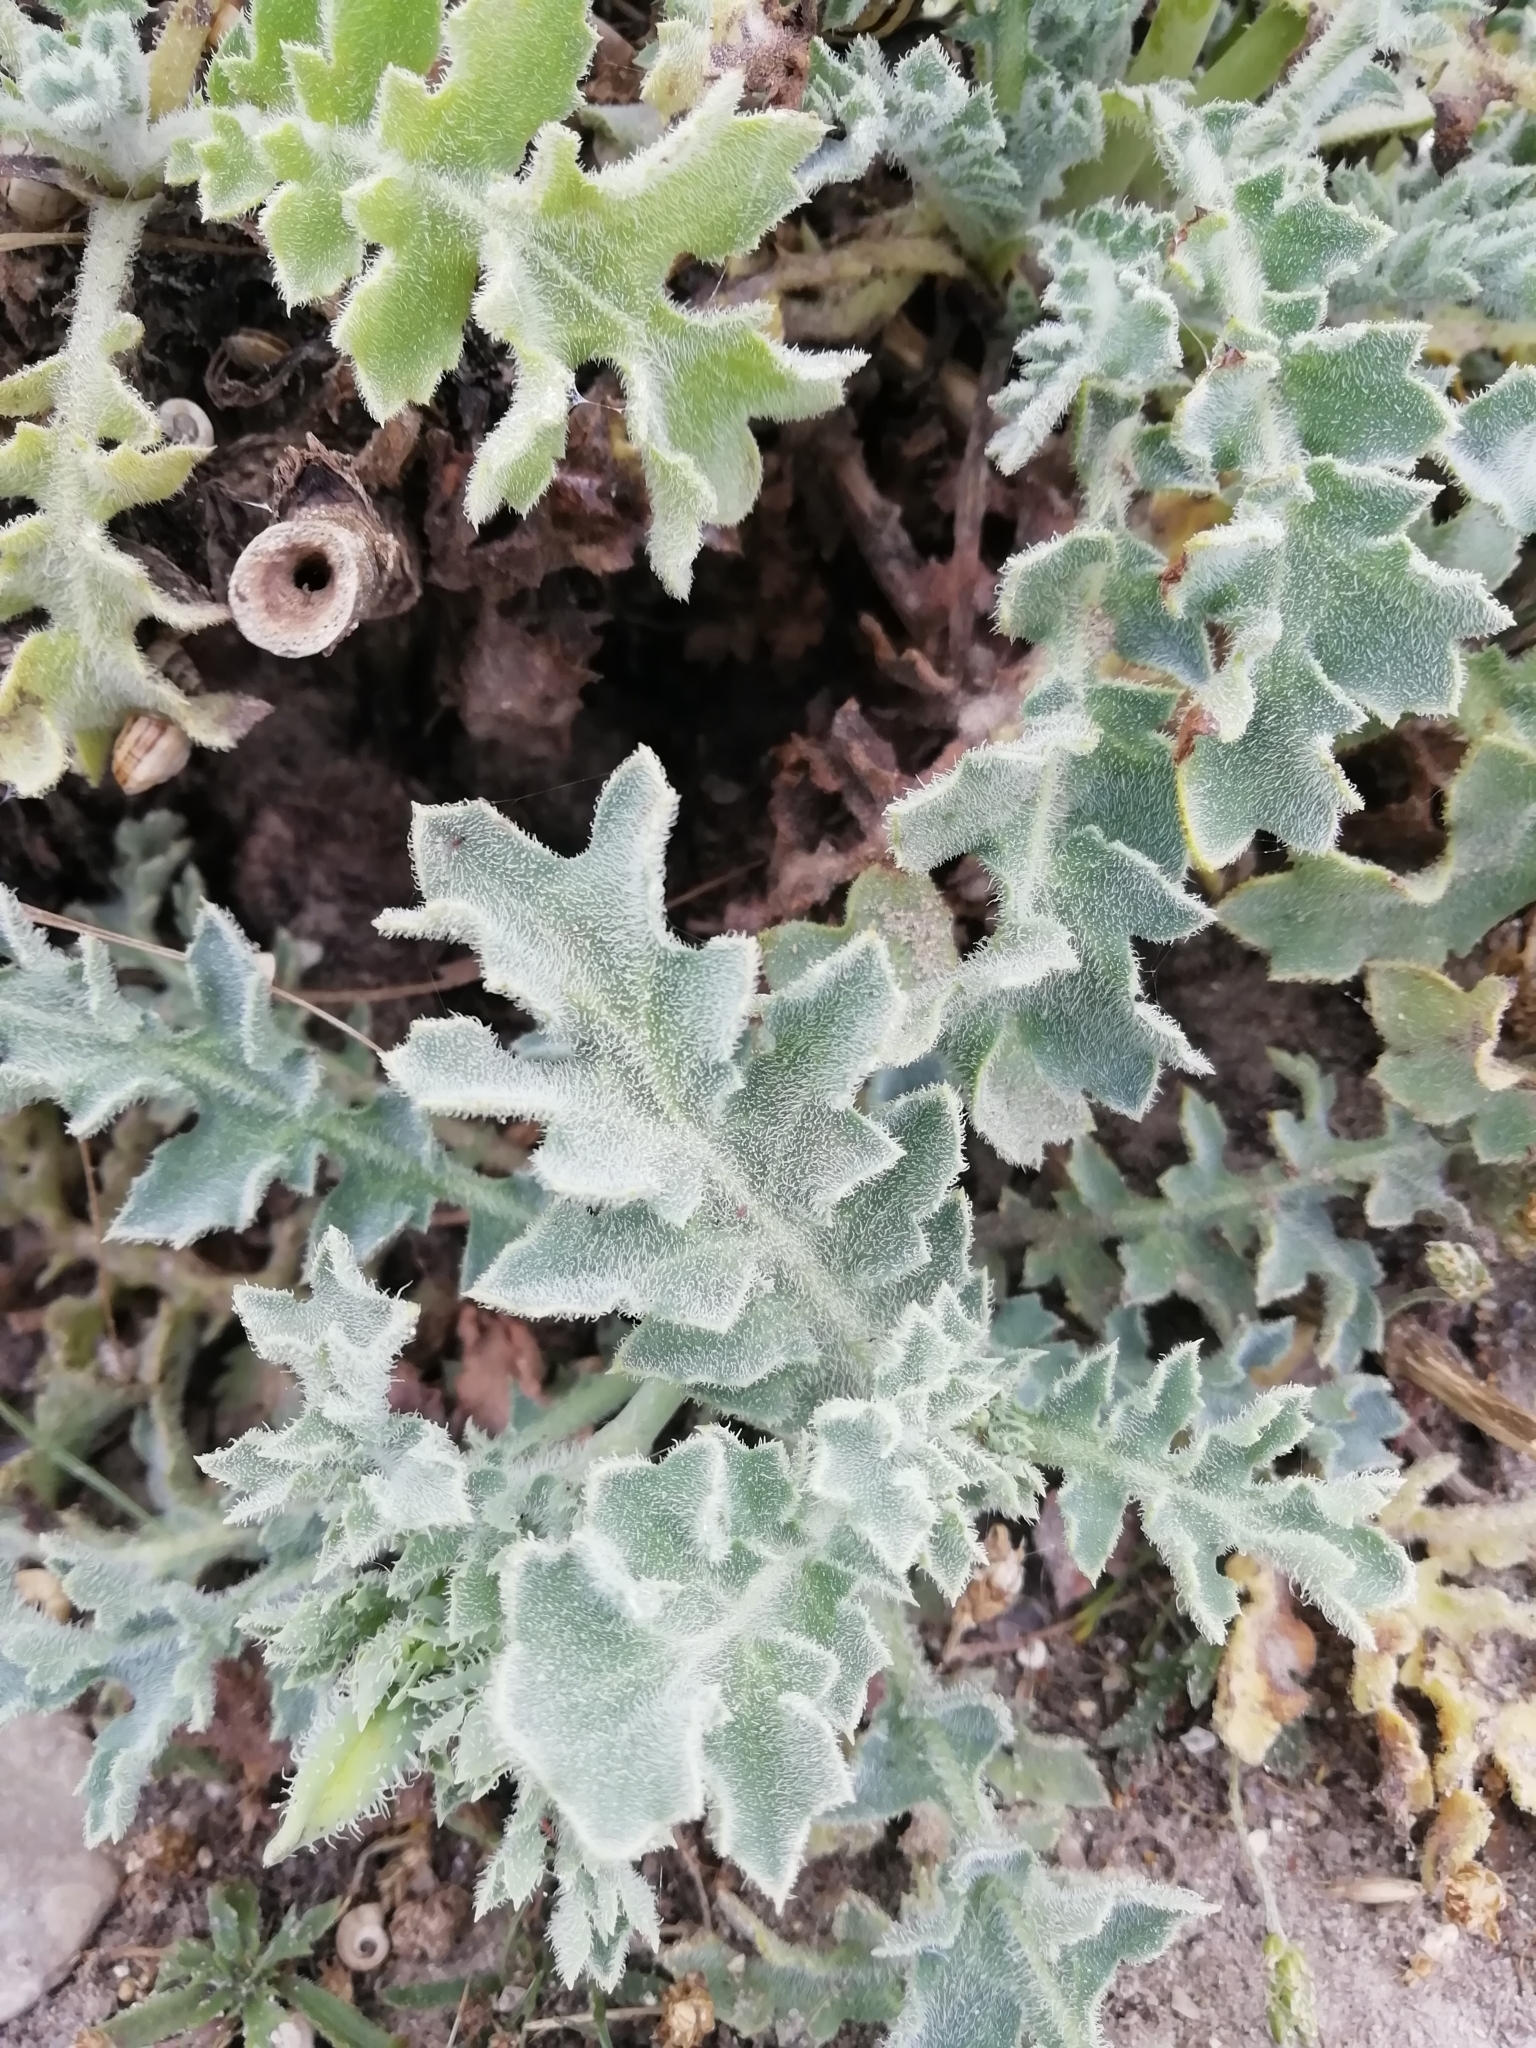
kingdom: Plantae
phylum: Tracheophyta
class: Magnoliopsida
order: Ranunculales
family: Papaveraceae
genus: Glaucium
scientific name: Glaucium flavum
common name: Yellow horned-poppy
